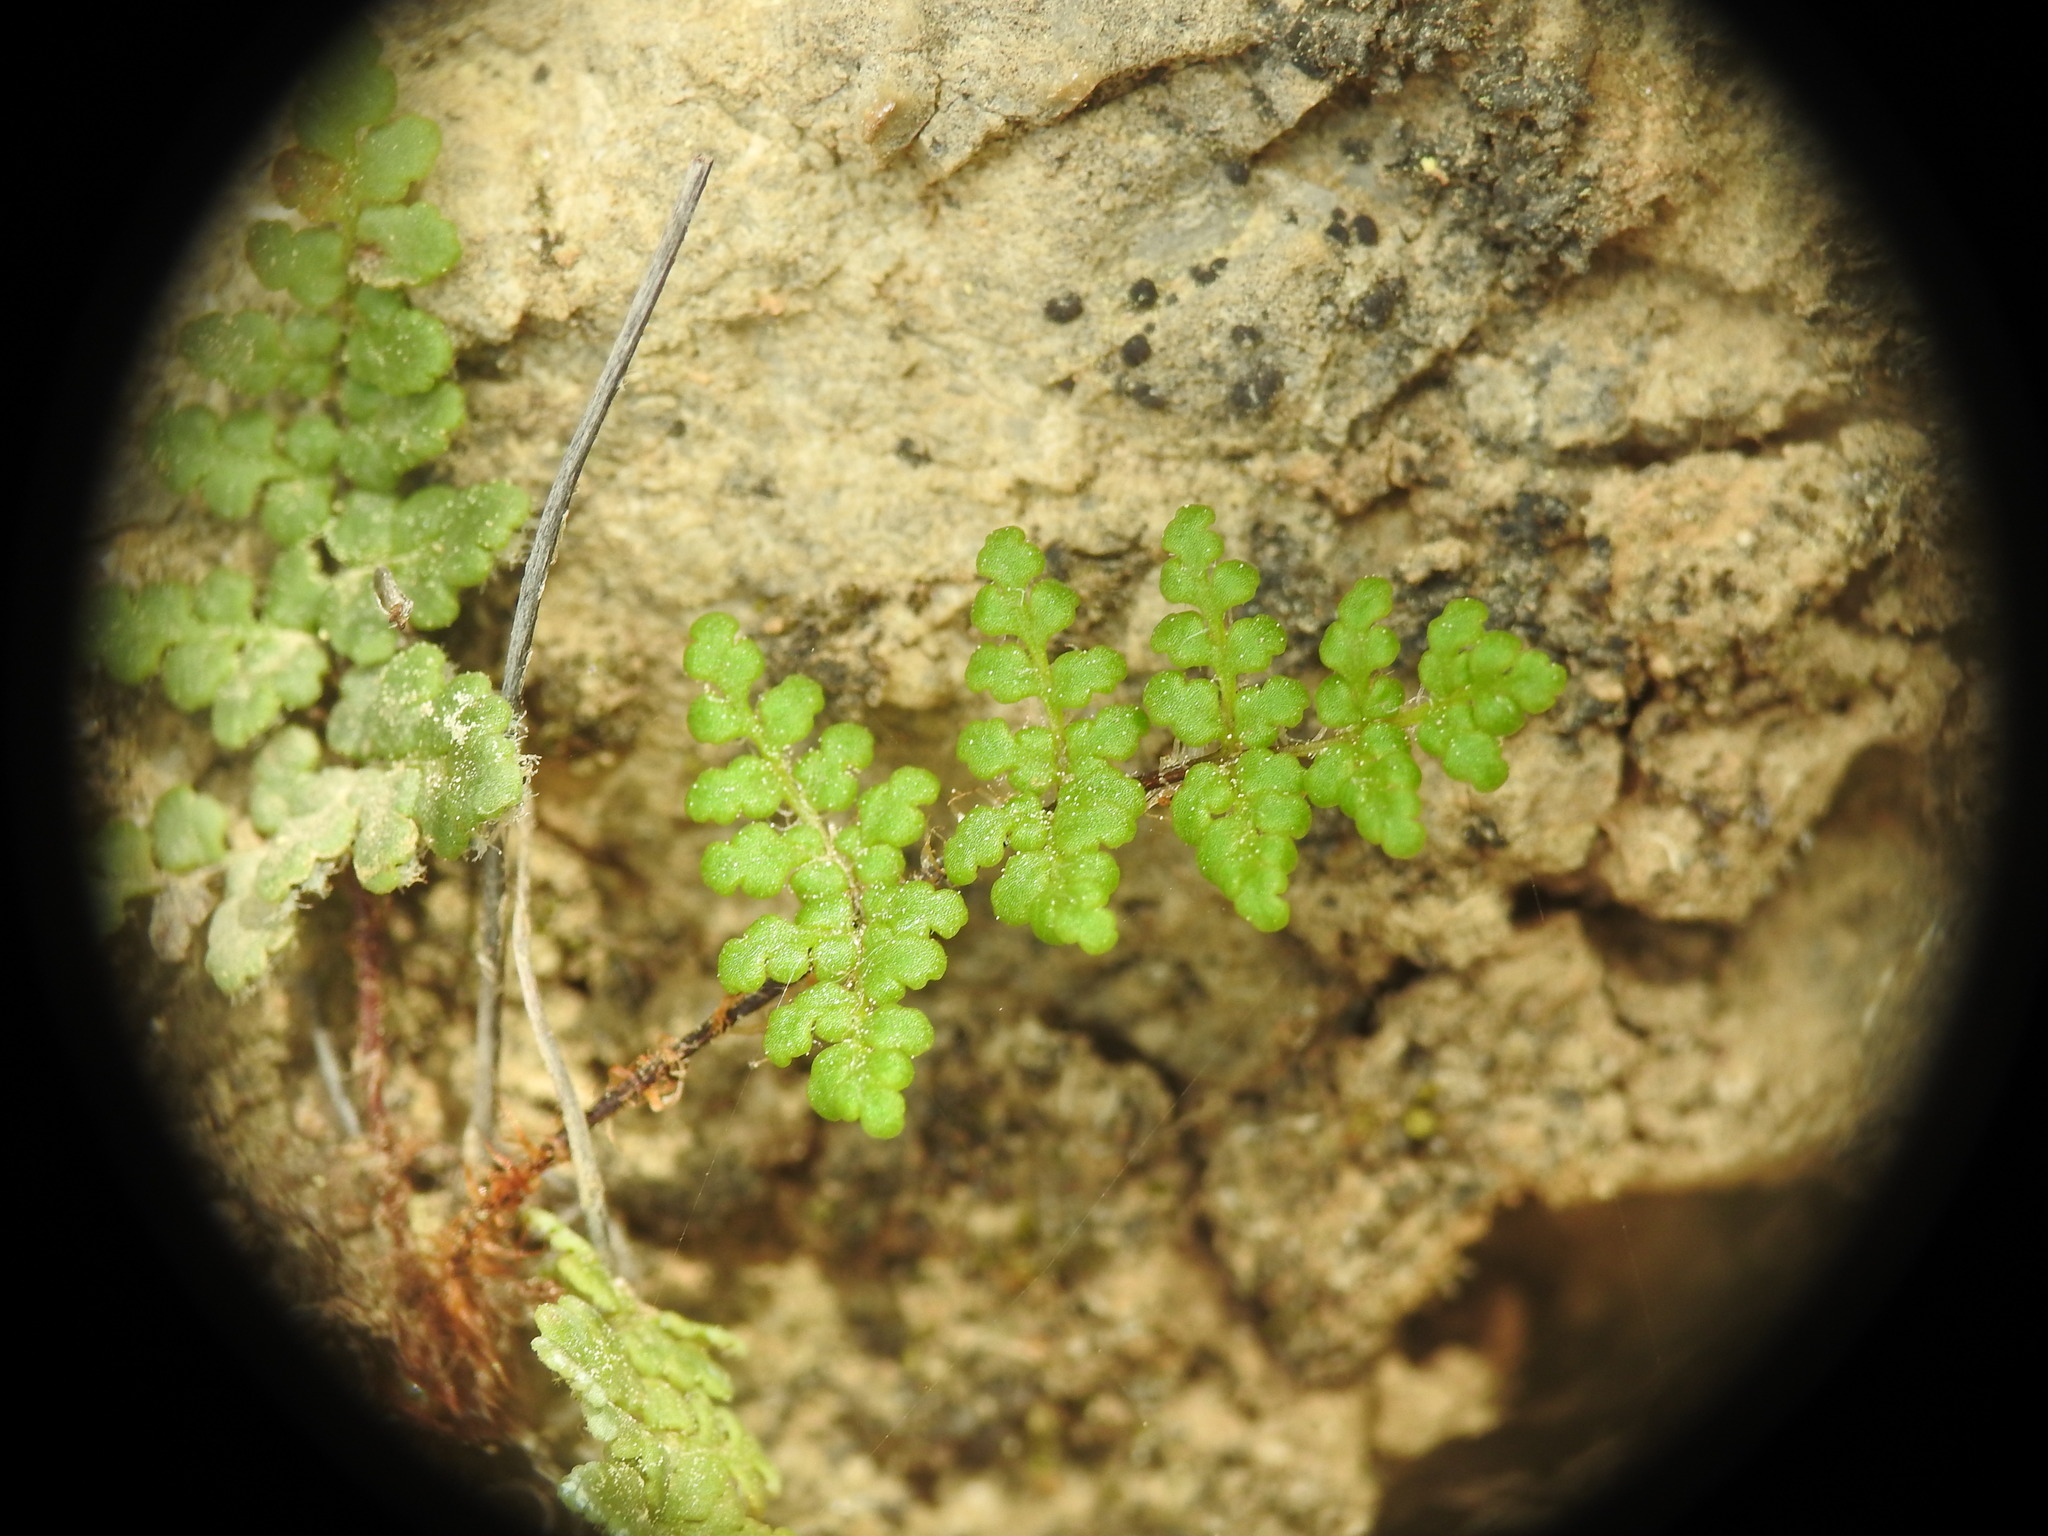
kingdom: Plantae
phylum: Tracheophyta
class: Polypodiopsida
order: Polypodiales
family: Pteridaceae
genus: Oeosporangium
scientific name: Oeosporangium persicum
